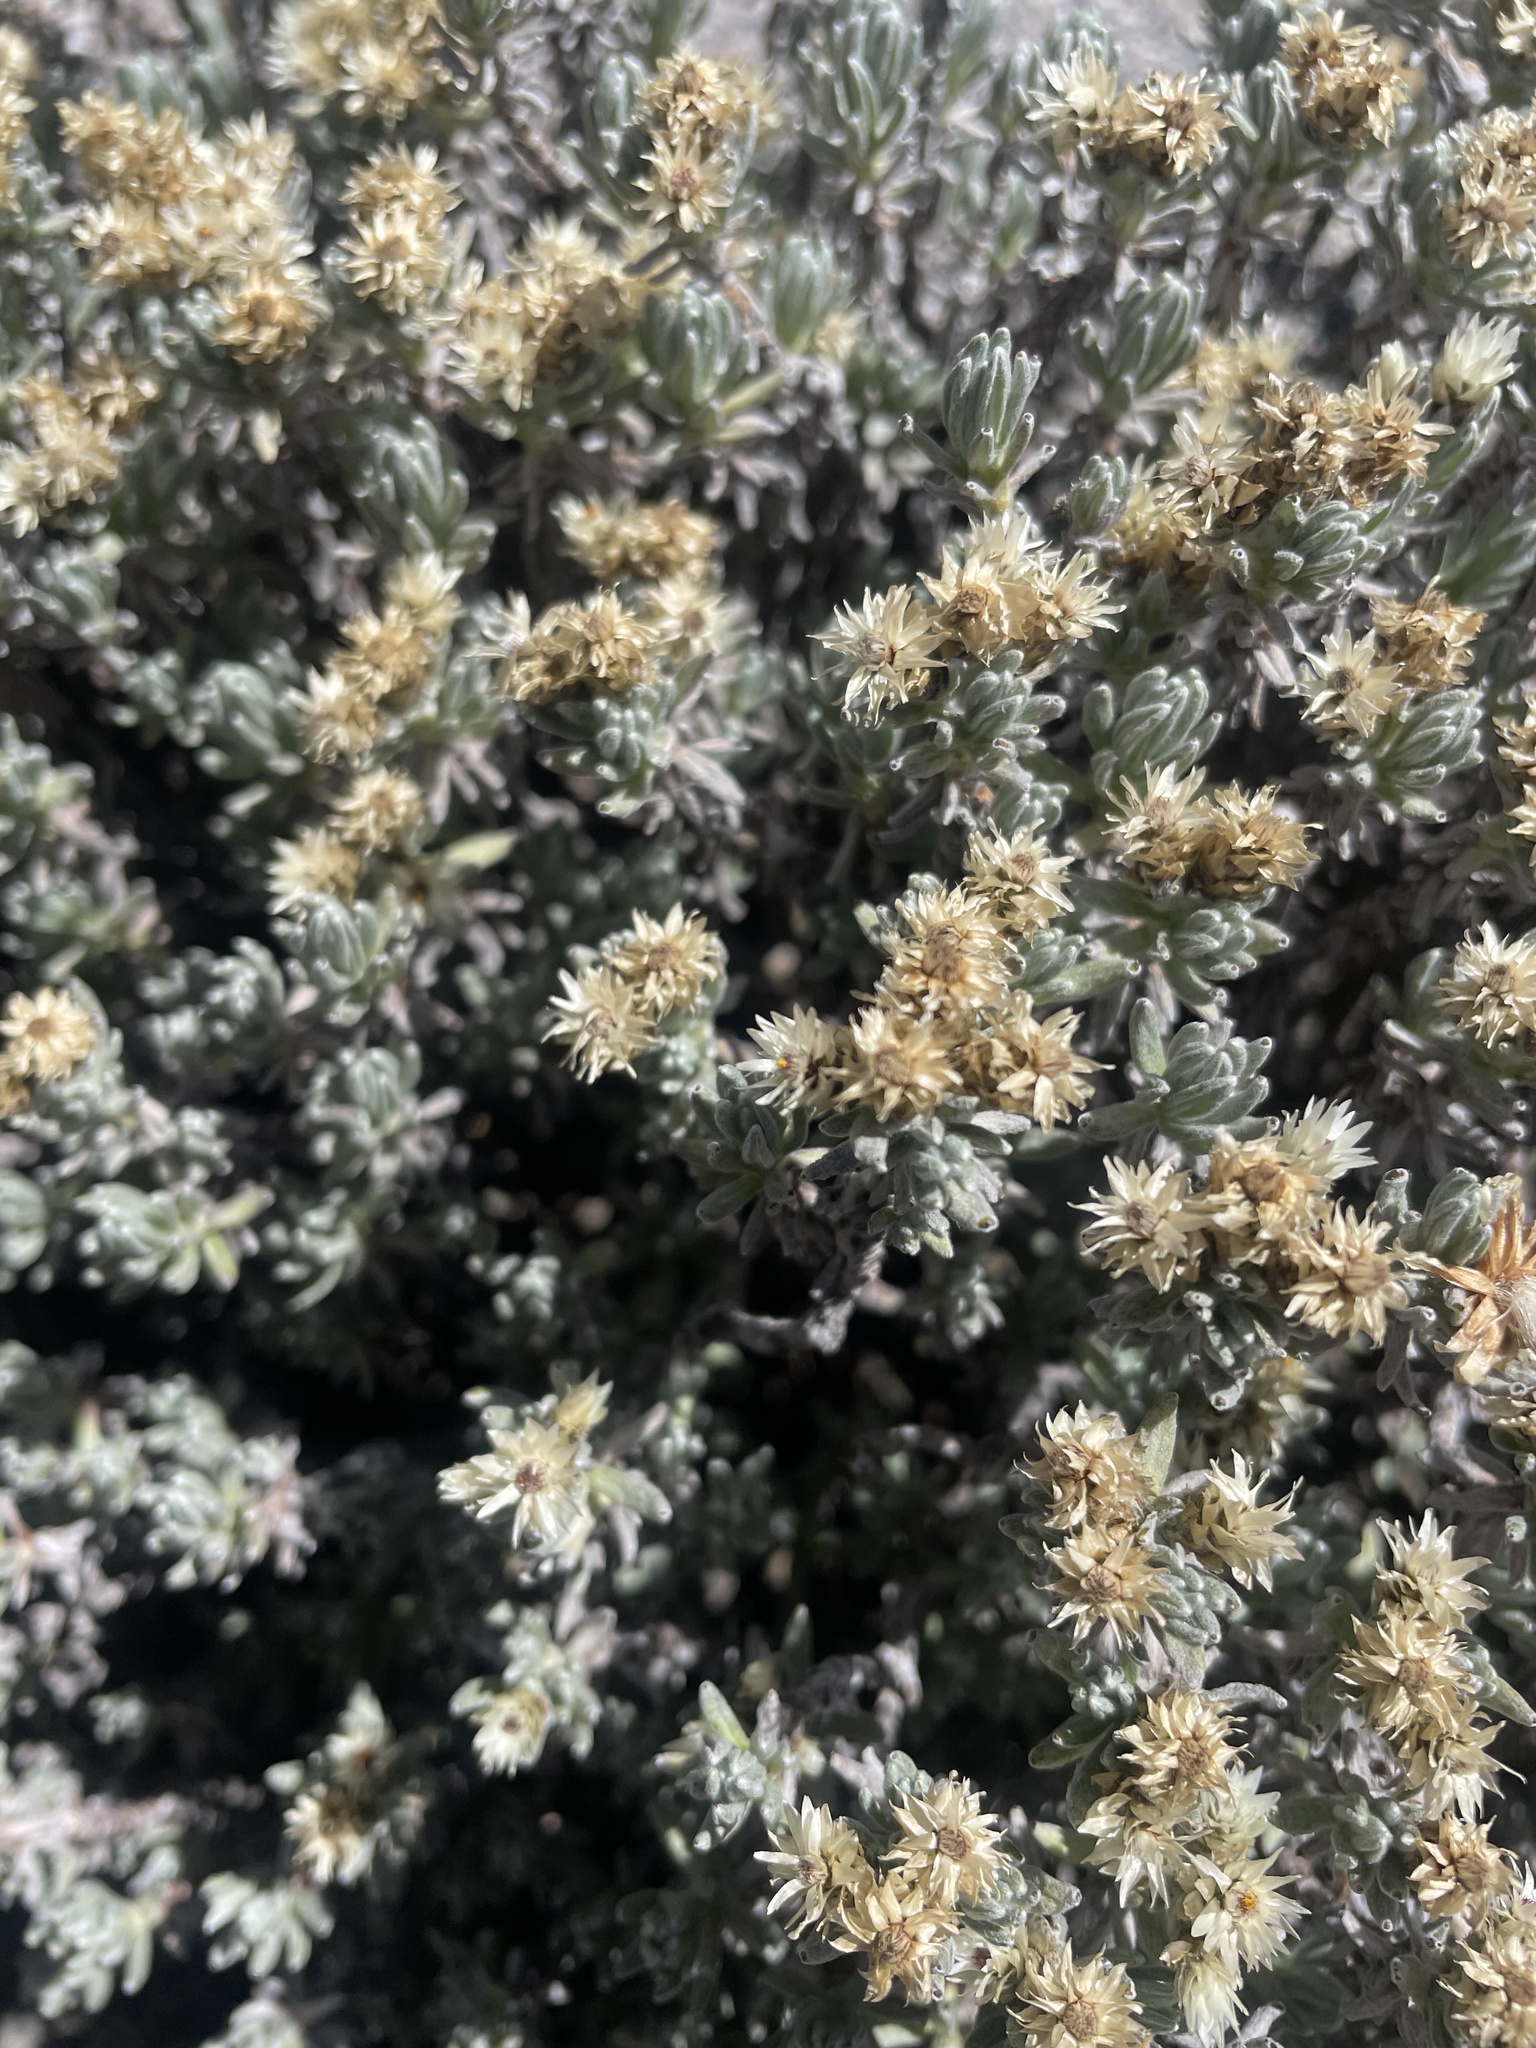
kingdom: Plantae
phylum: Tracheophyta
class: Magnoliopsida
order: Asterales
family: Asteraceae
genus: Gnaphaliothamnus
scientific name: Gnaphaliothamnus lavandulifolius
